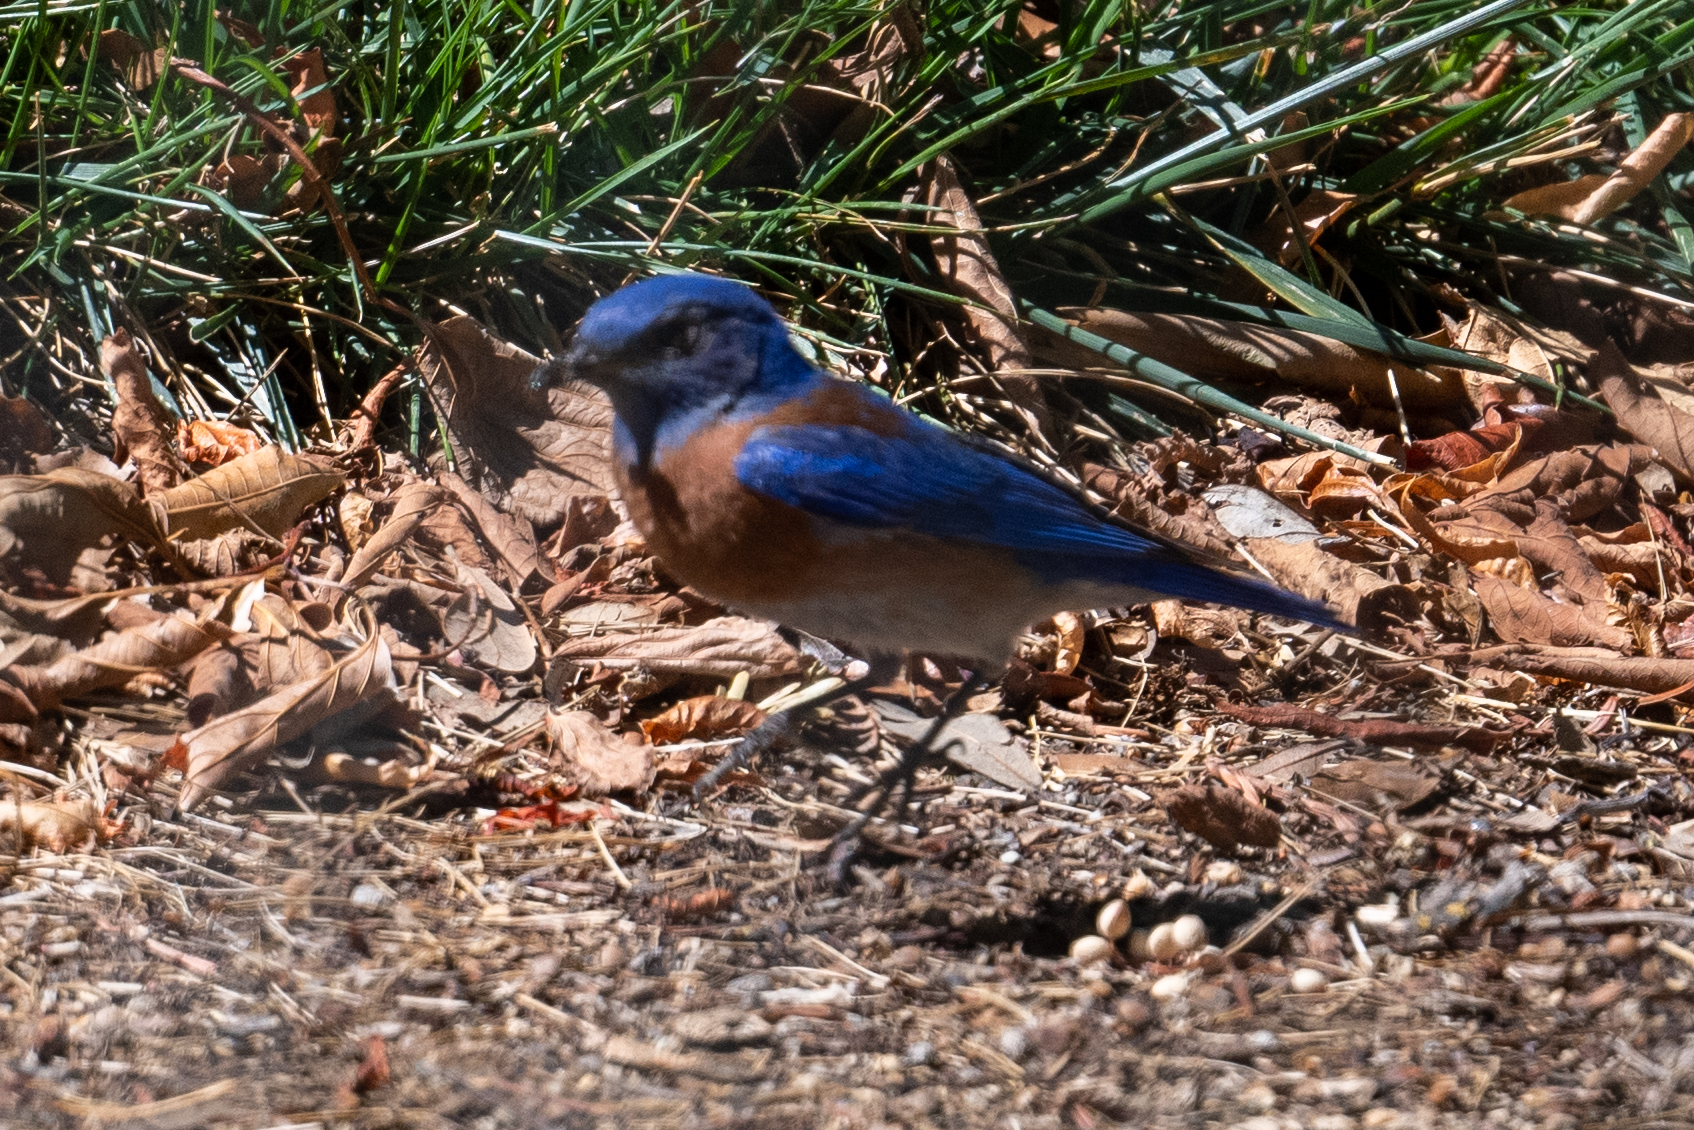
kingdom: Animalia
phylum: Chordata
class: Aves
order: Passeriformes
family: Turdidae
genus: Sialia
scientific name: Sialia mexicana
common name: Western bluebird
